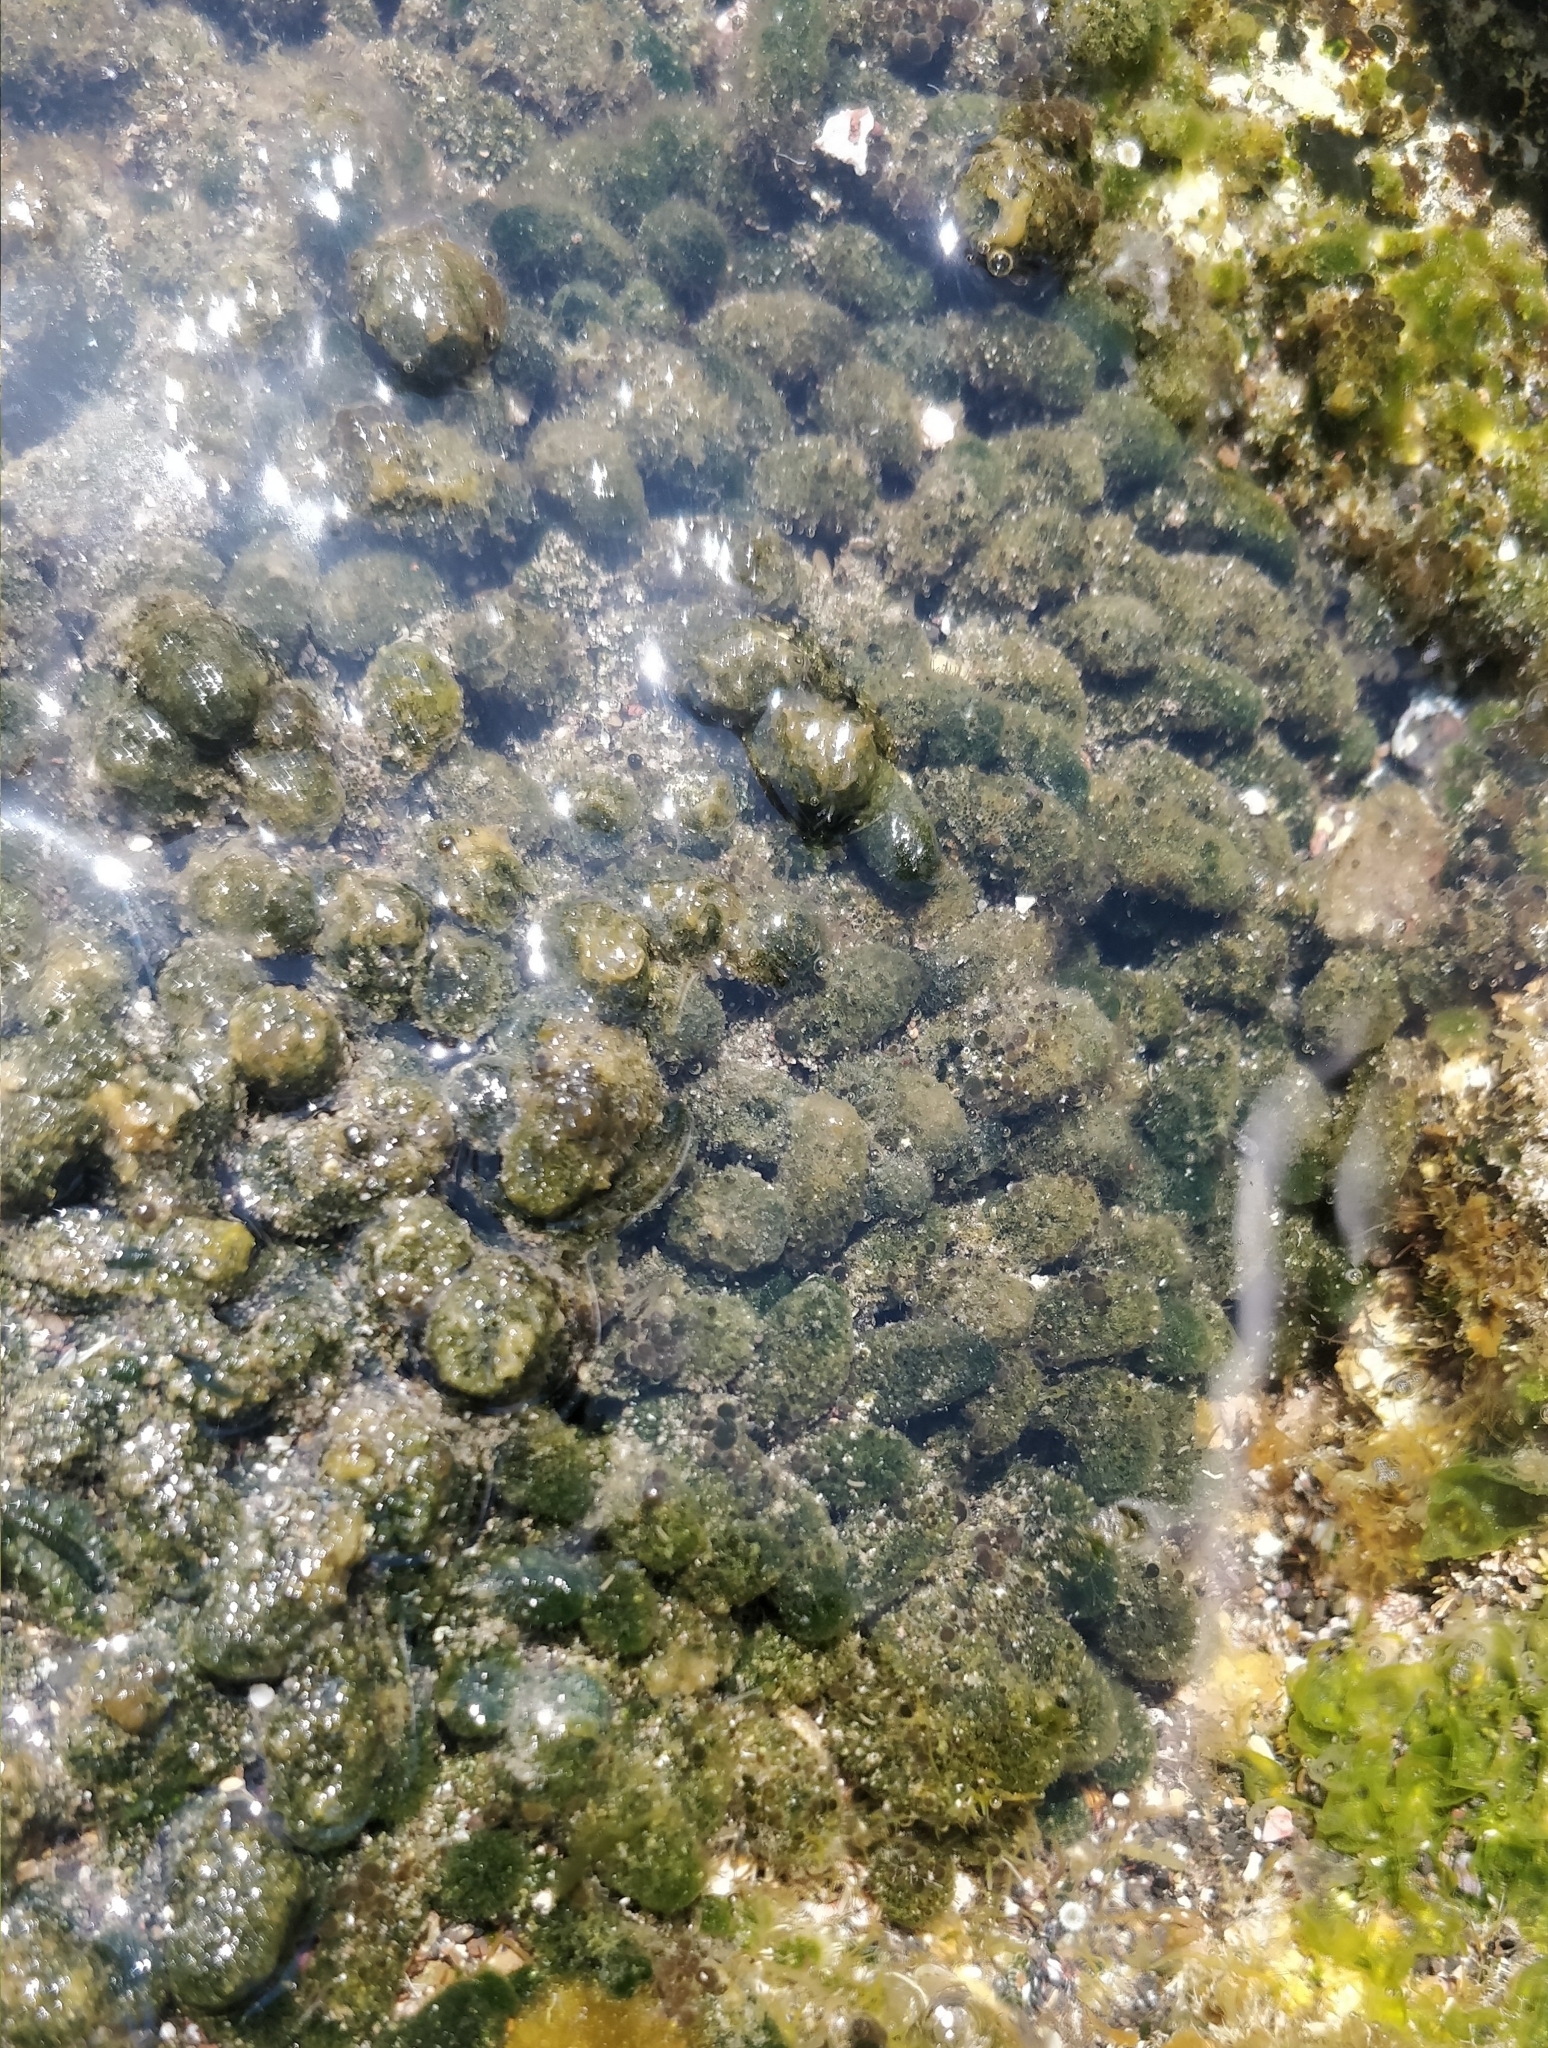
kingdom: Plantae
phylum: Chlorophyta
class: Ulvophyceae
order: Dasycladales
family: Dasycladaceae
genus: Dasycladus
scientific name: Dasycladus vermicularis
